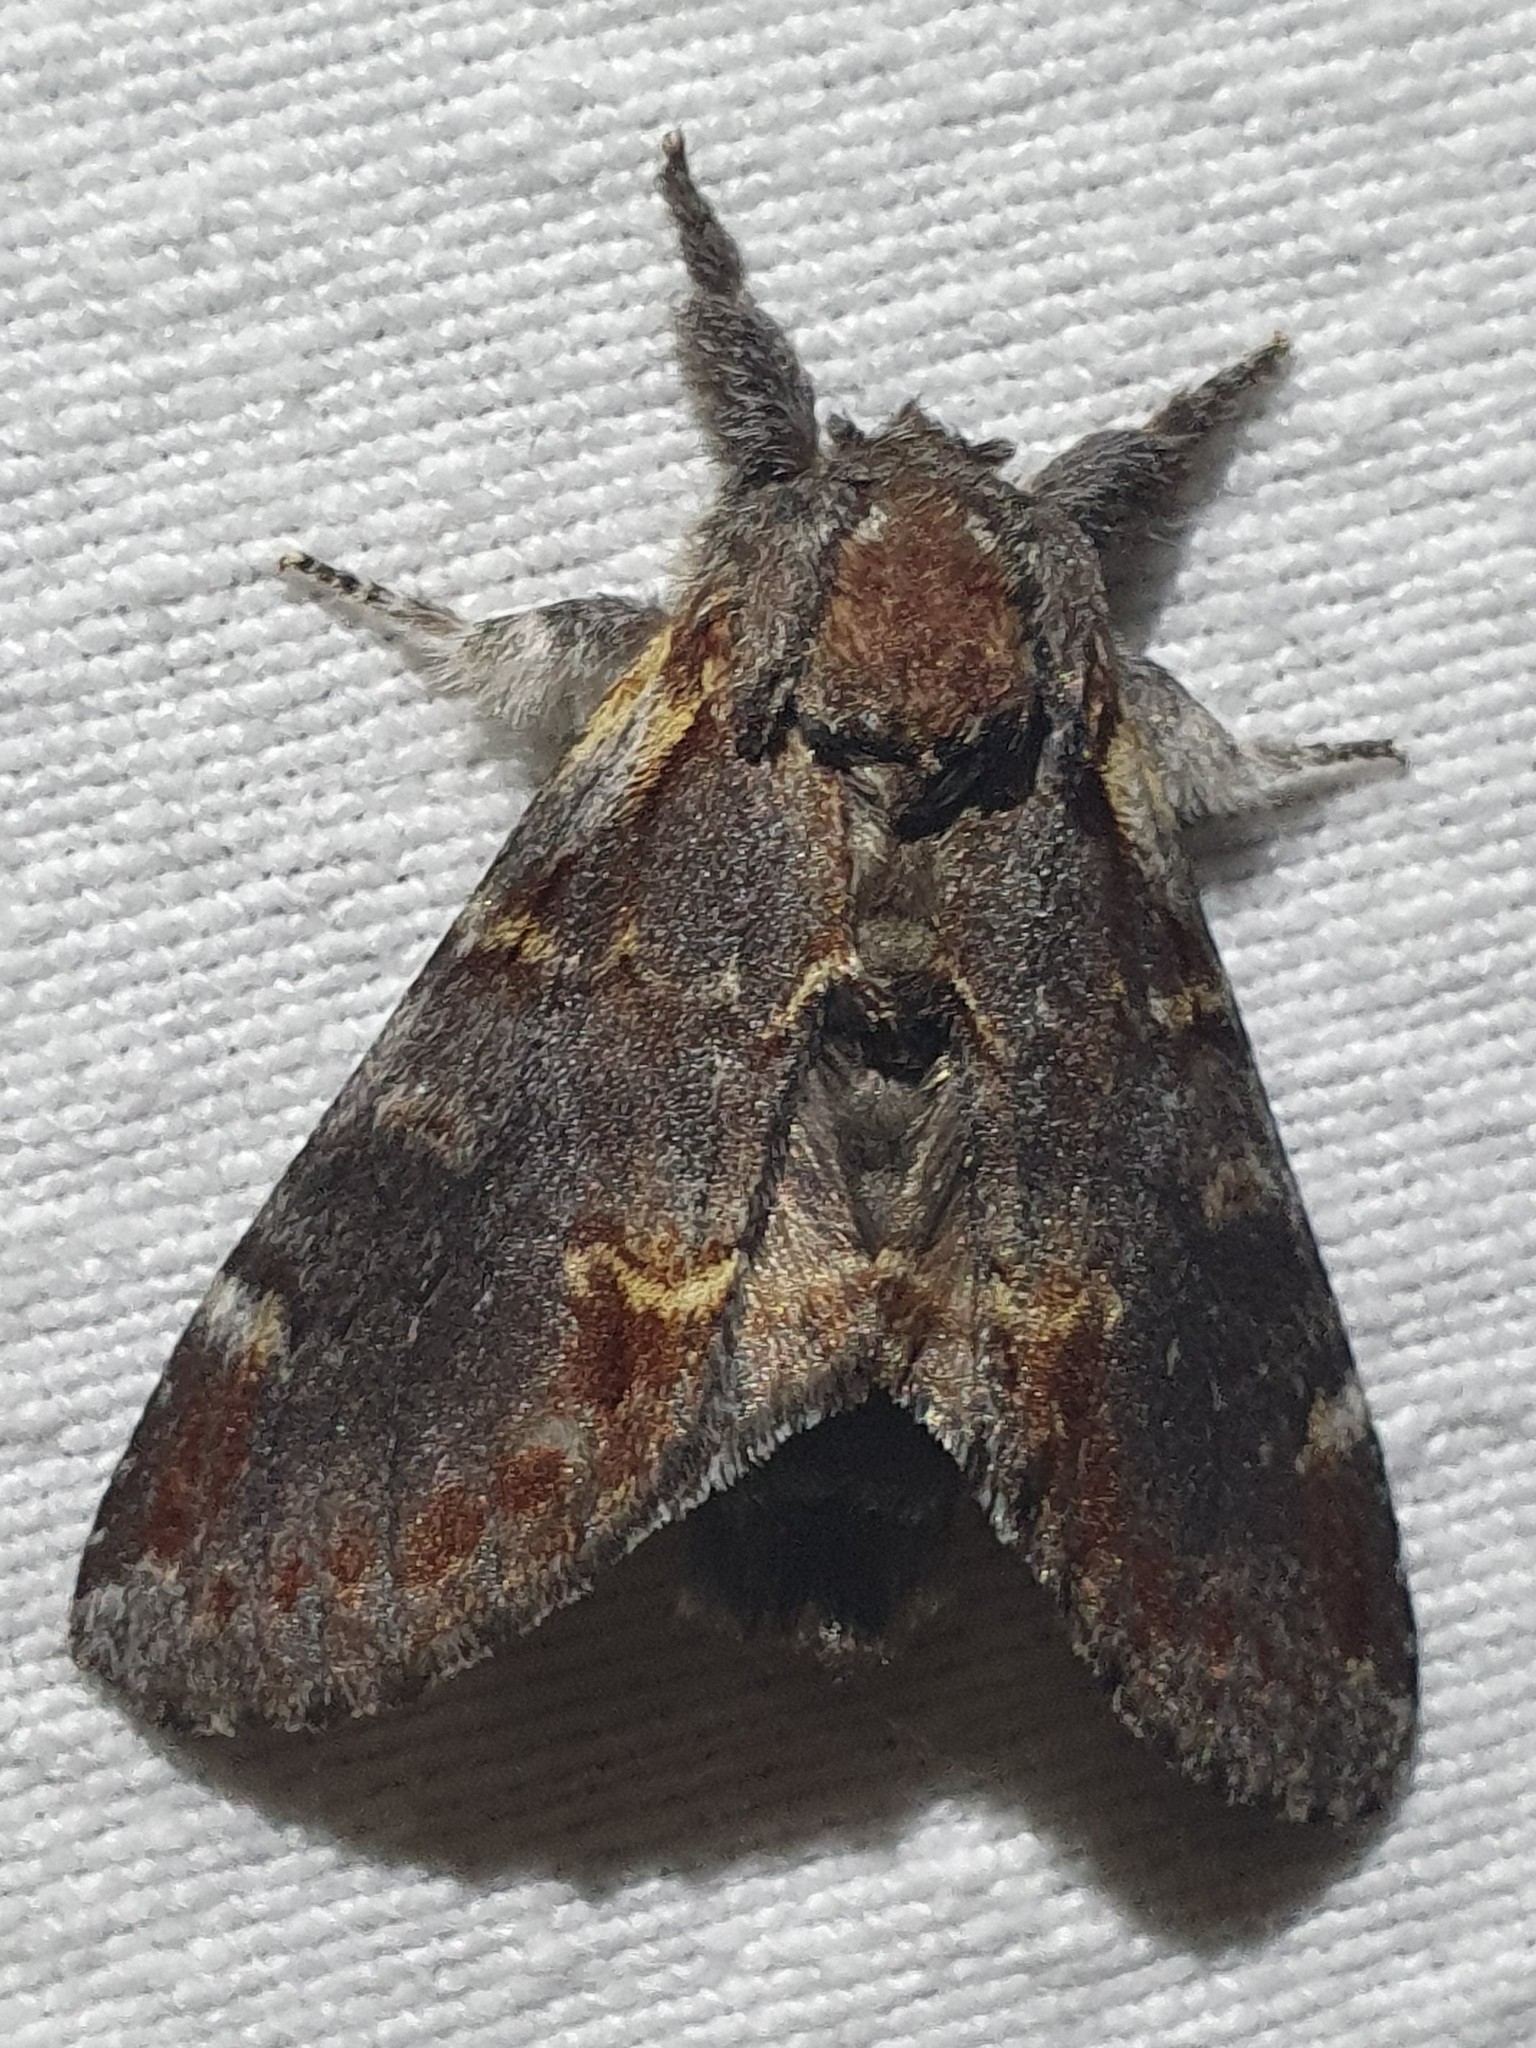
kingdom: Animalia
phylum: Arthropoda
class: Insecta
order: Lepidoptera
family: Notodontidae
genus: Notodonta
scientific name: Notodonta dromedarius
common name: Iron prominent
